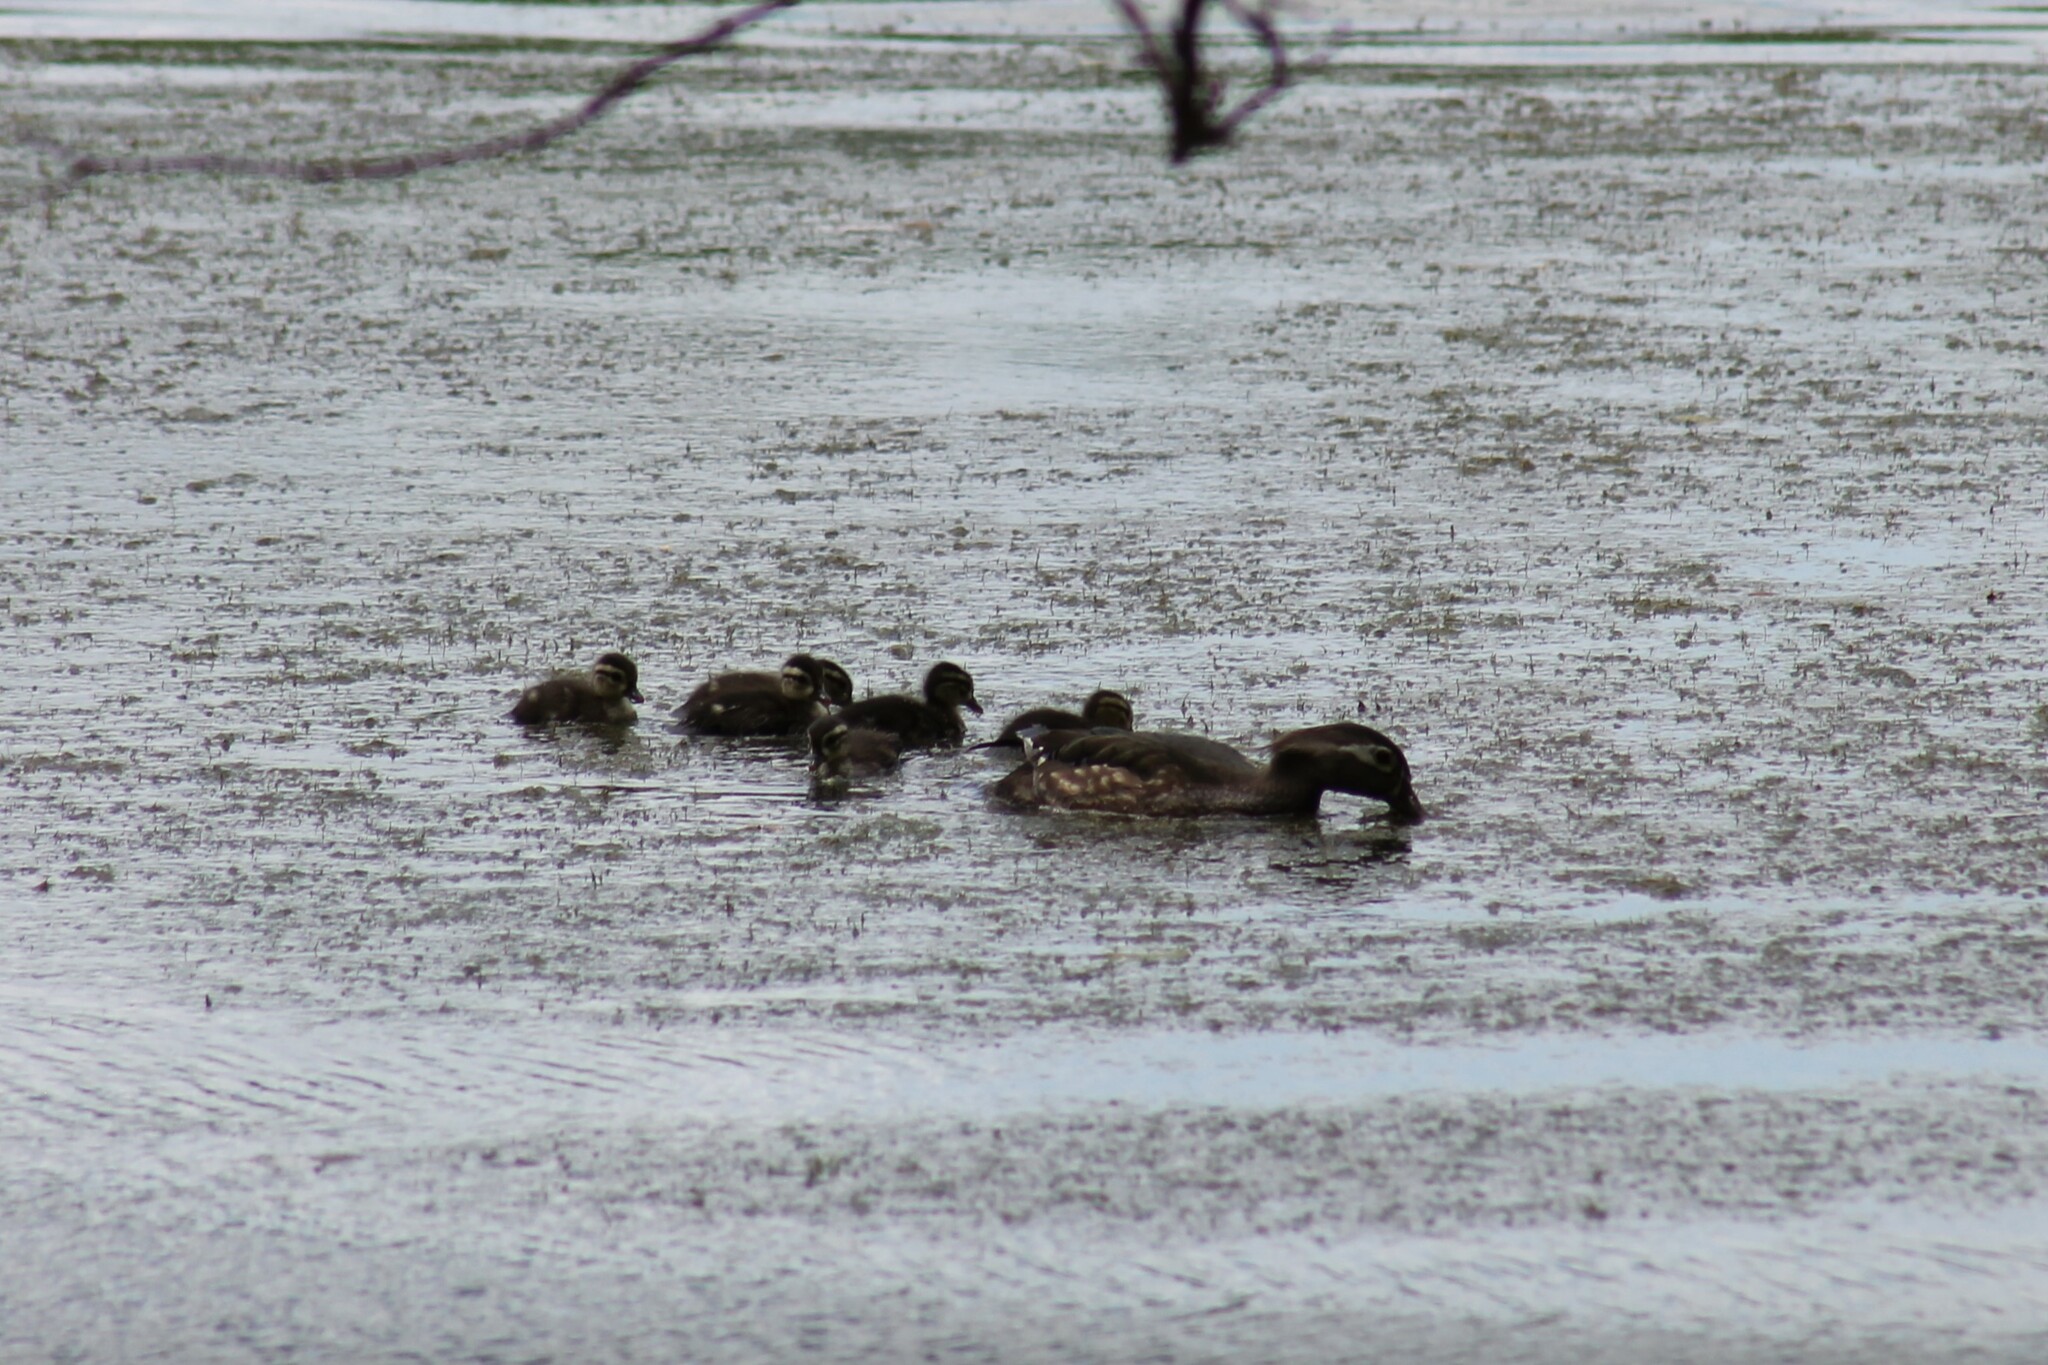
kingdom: Animalia
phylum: Chordata
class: Aves
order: Anseriformes
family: Anatidae
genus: Aix
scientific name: Aix sponsa
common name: Wood duck
